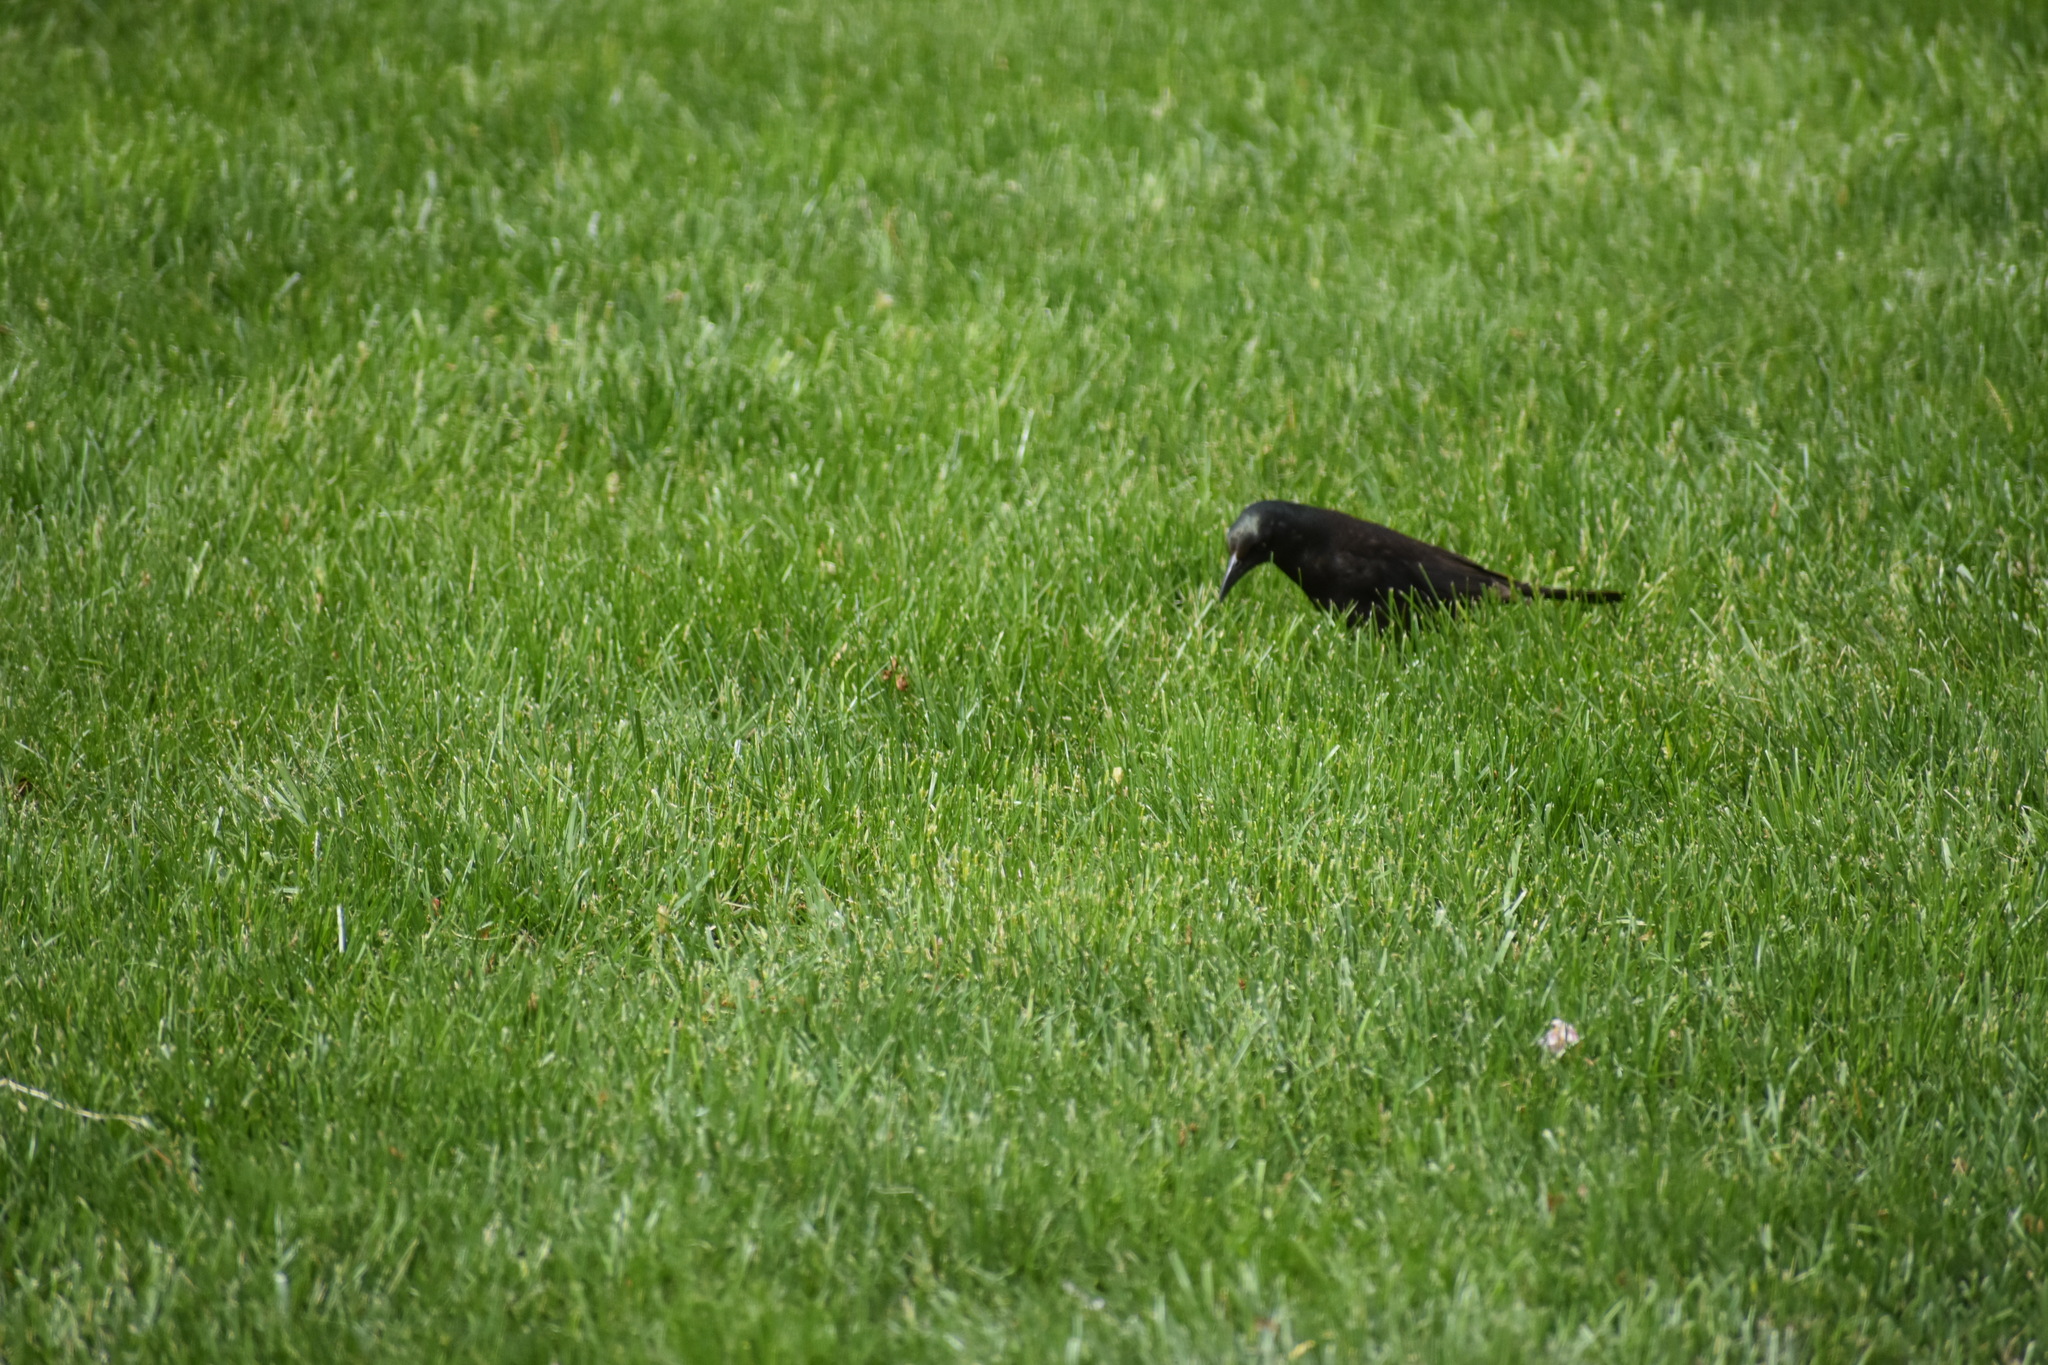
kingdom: Animalia
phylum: Chordata
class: Aves
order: Passeriformes
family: Icteridae
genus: Quiscalus
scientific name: Quiscalus quiscula
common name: Common grackle
